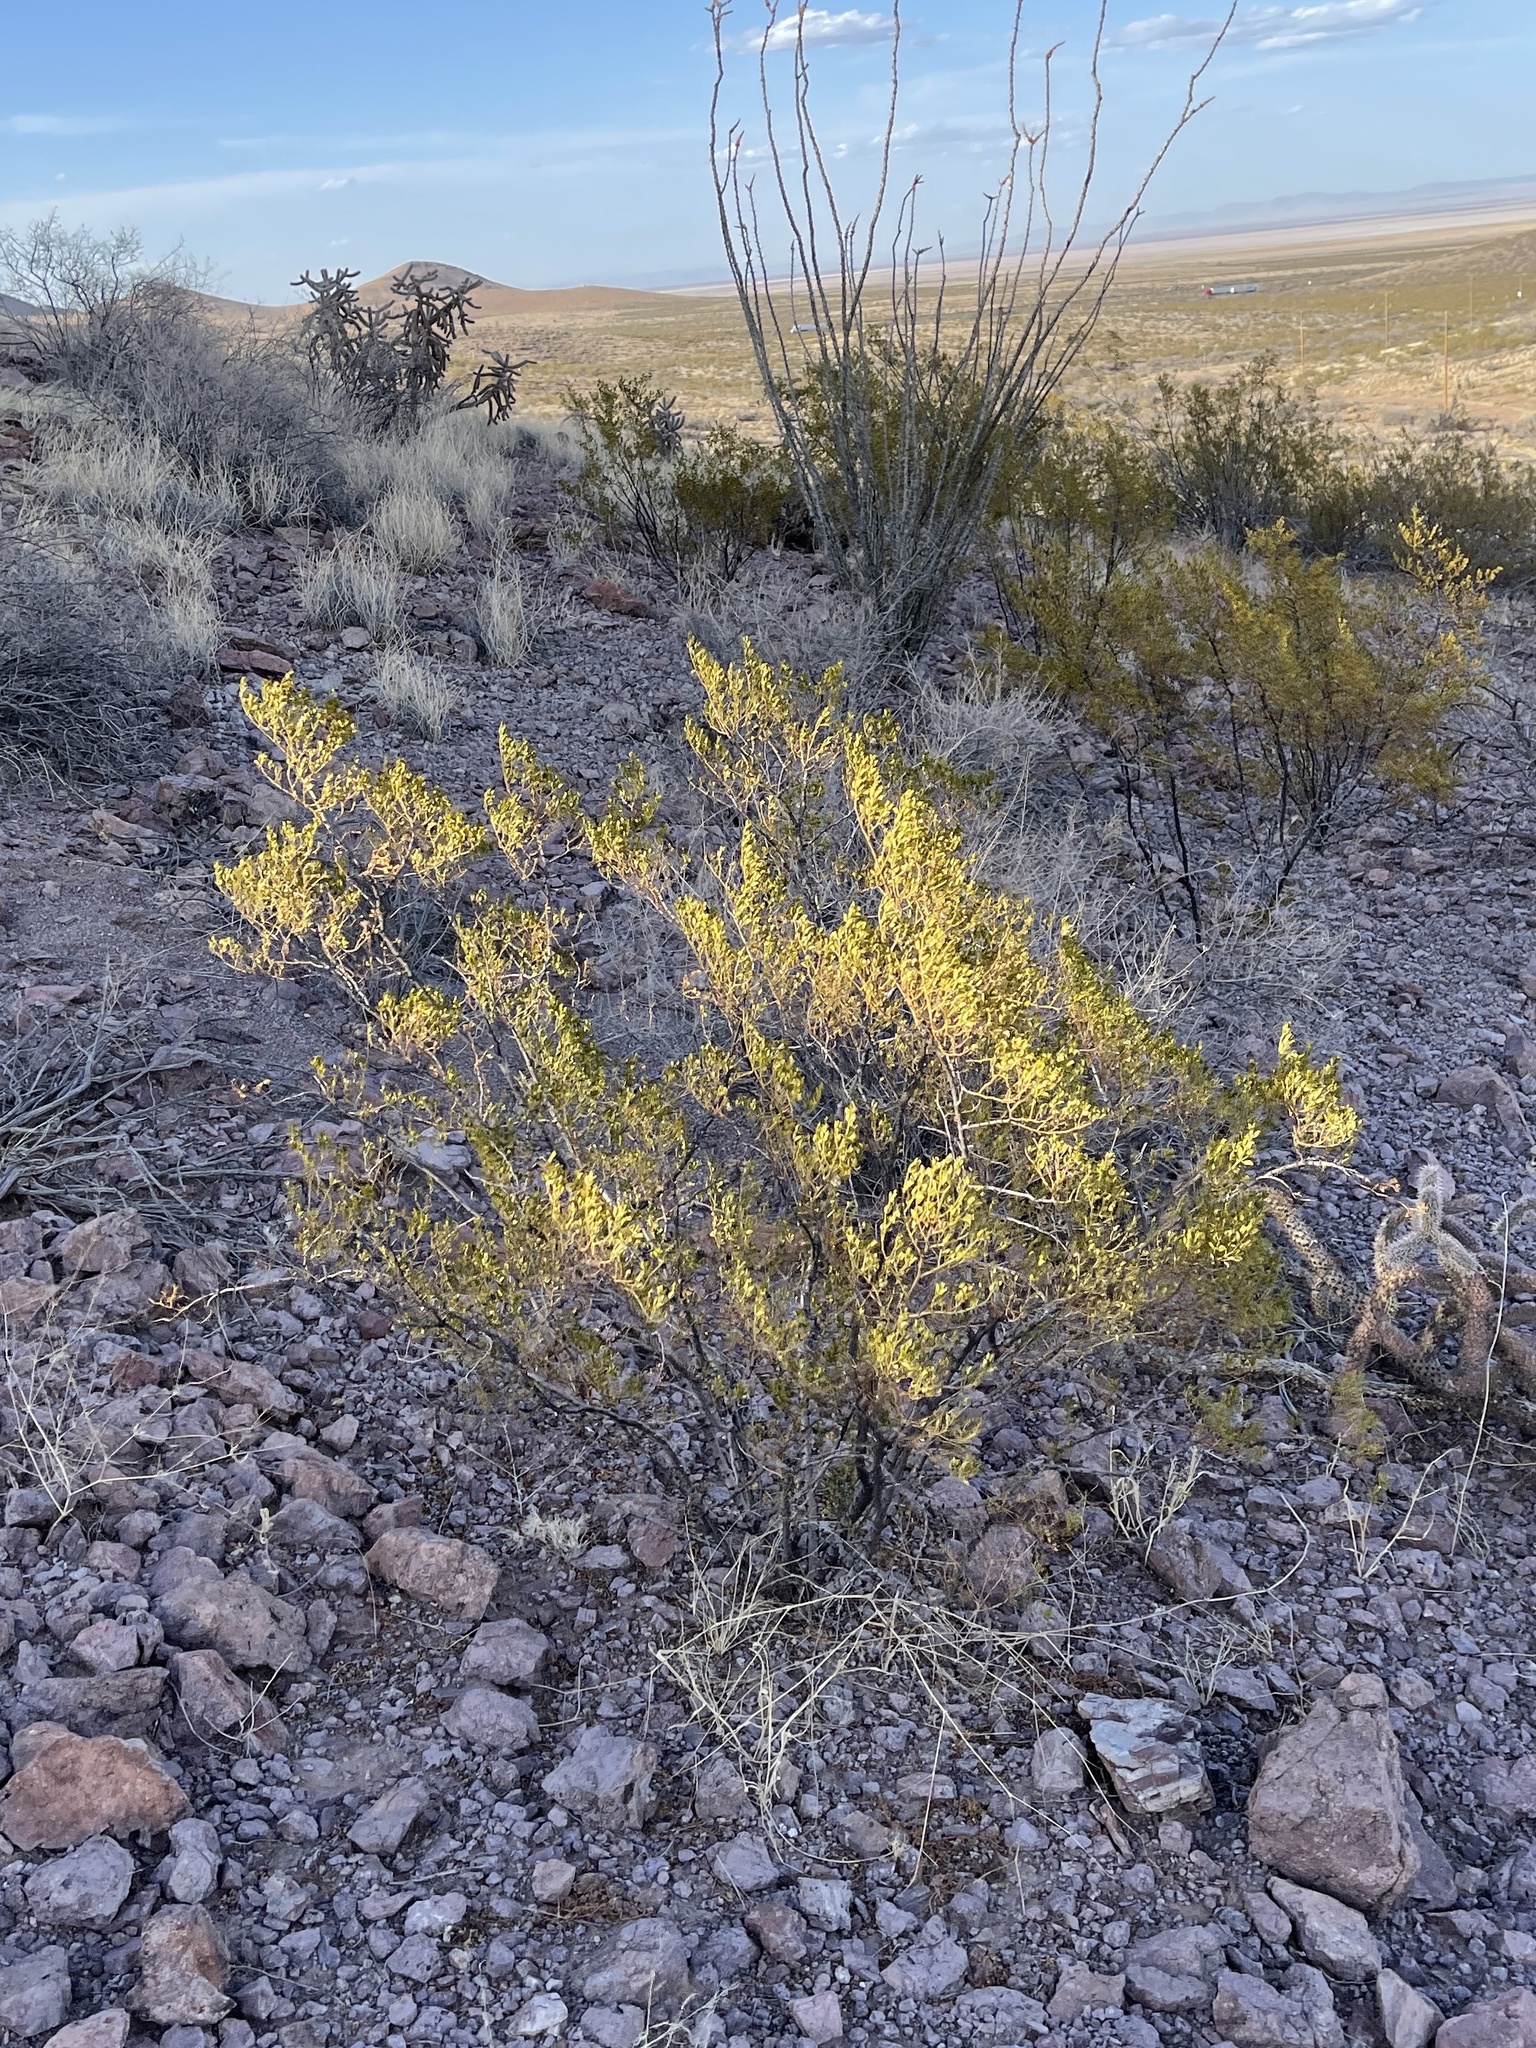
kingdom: Plantae
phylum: Tracheophyta
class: Magnoliopsida
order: Zygophyllales
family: Zygophyllaceae
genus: Larrea
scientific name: Larrea tridentata
